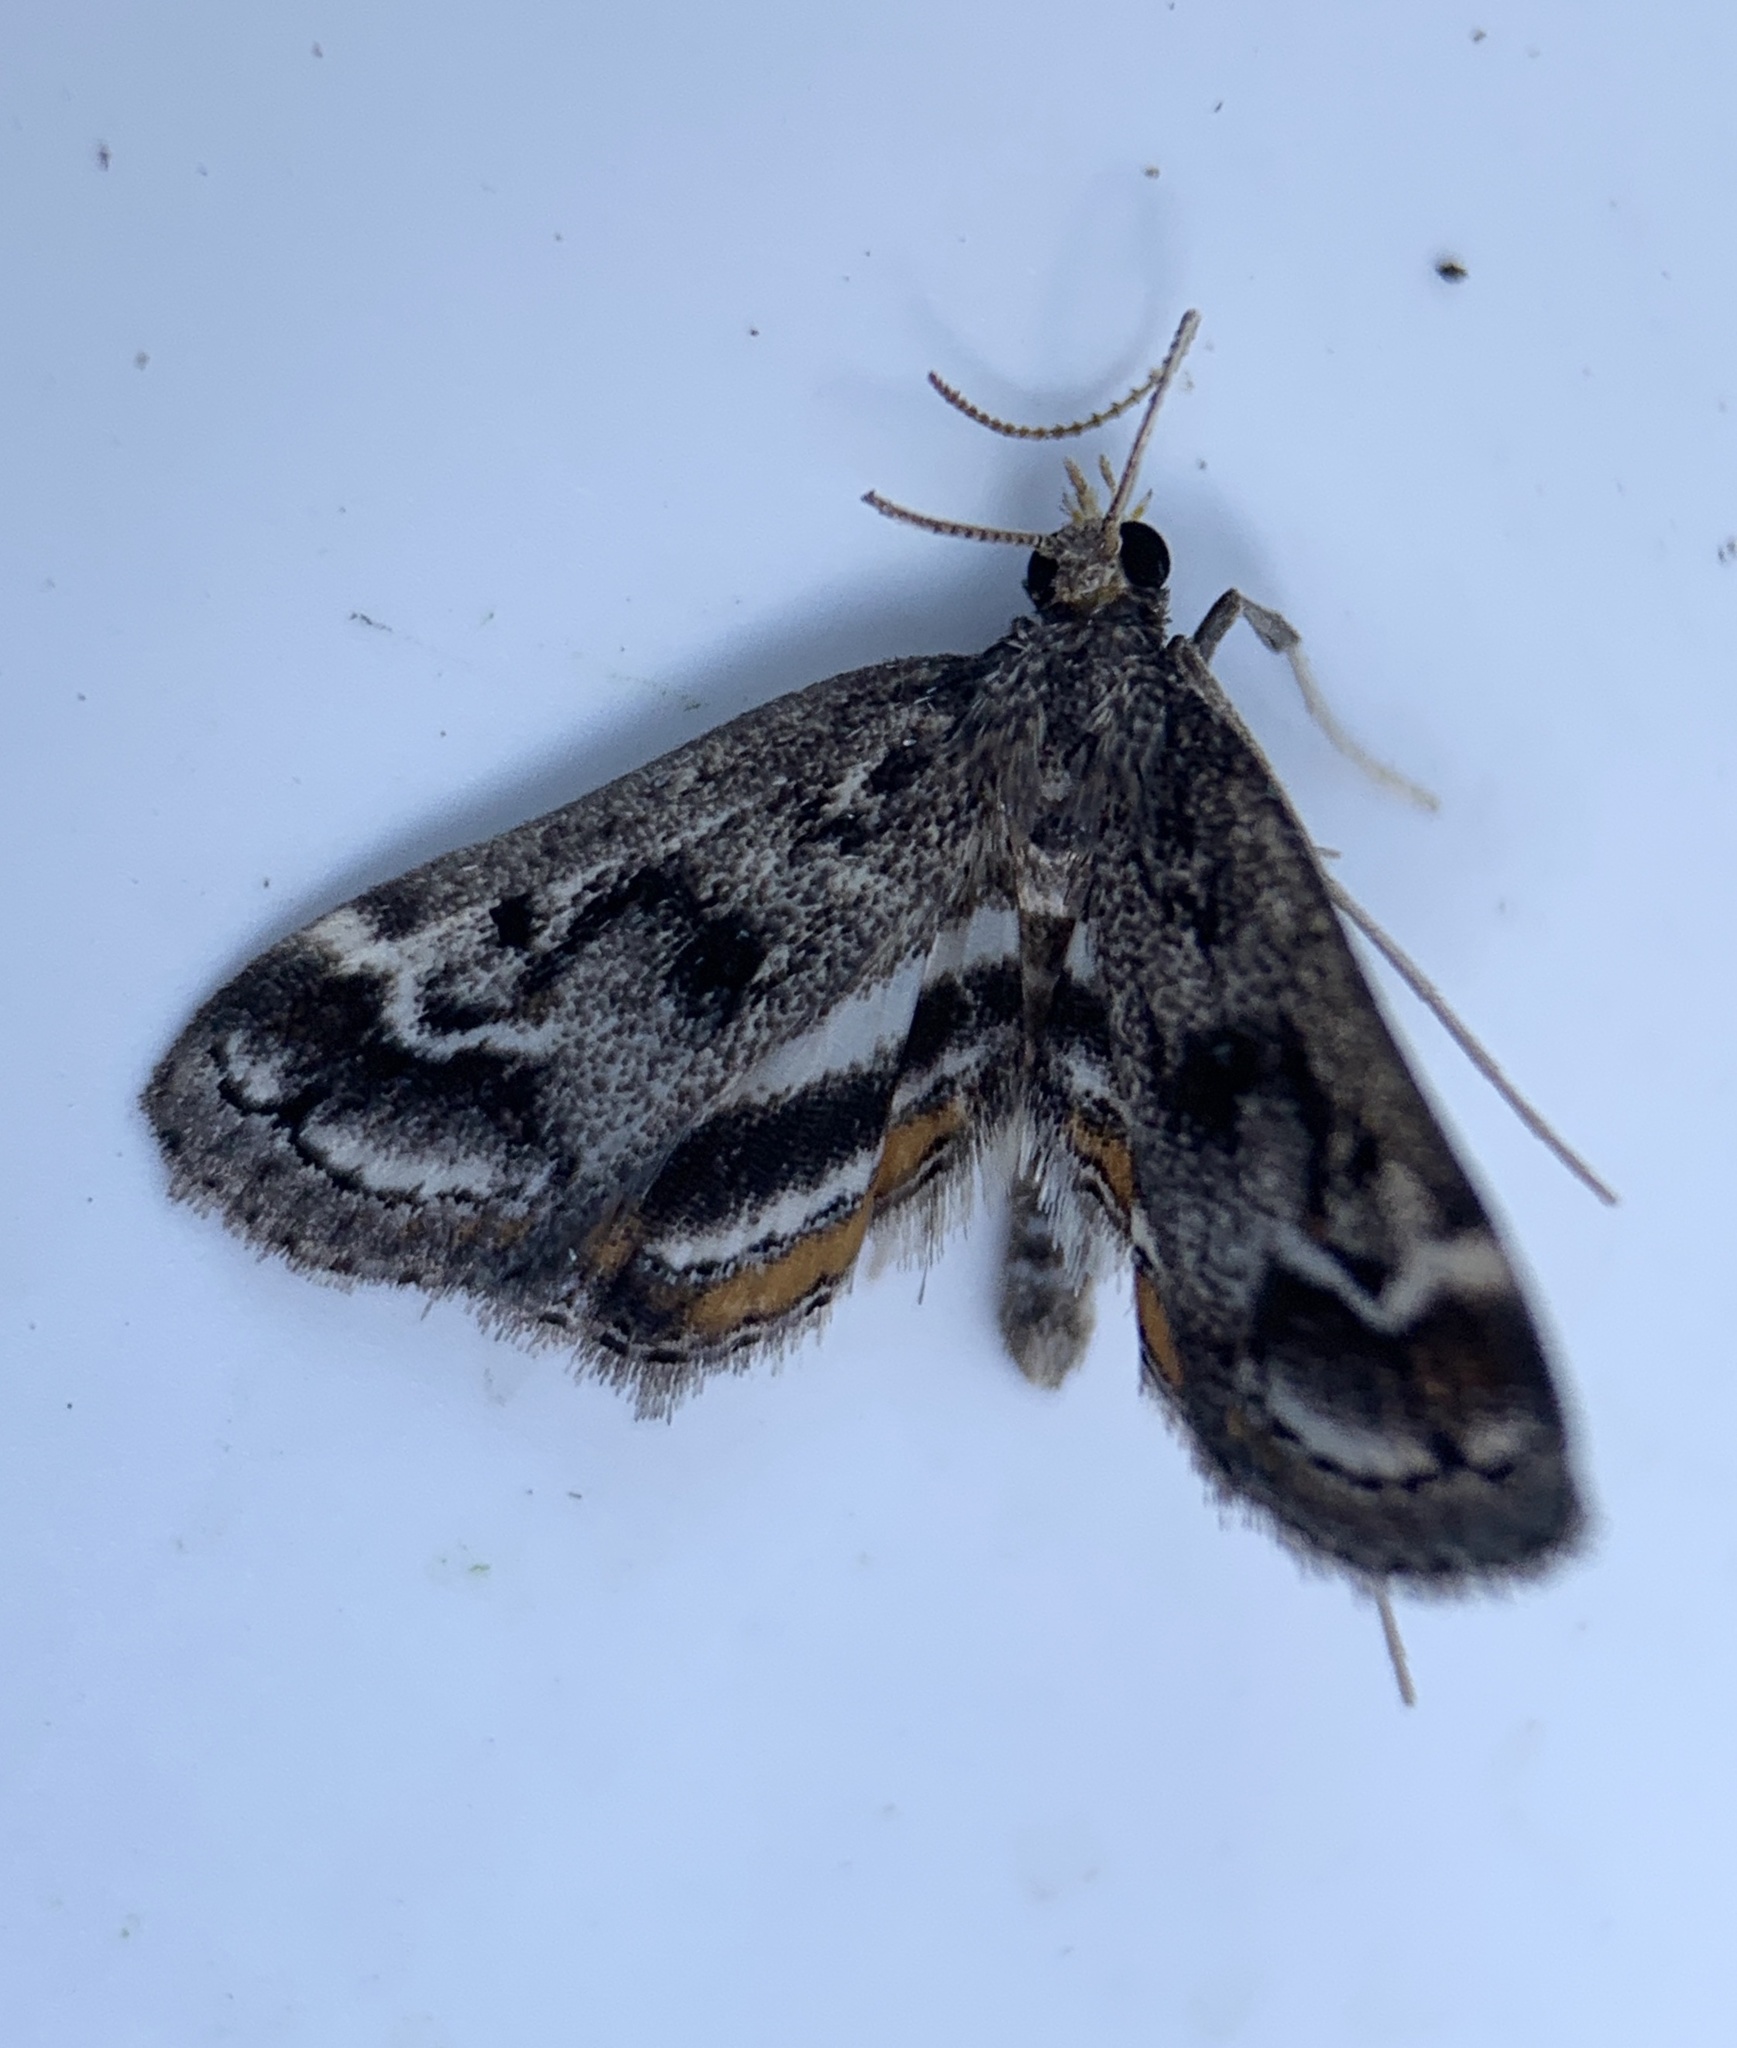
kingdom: Animalia
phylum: Arthropoda
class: Insecta
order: Lepidoptera
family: Crambidae
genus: Parapoynx
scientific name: Parapoynx obscuralis
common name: American china-mark
